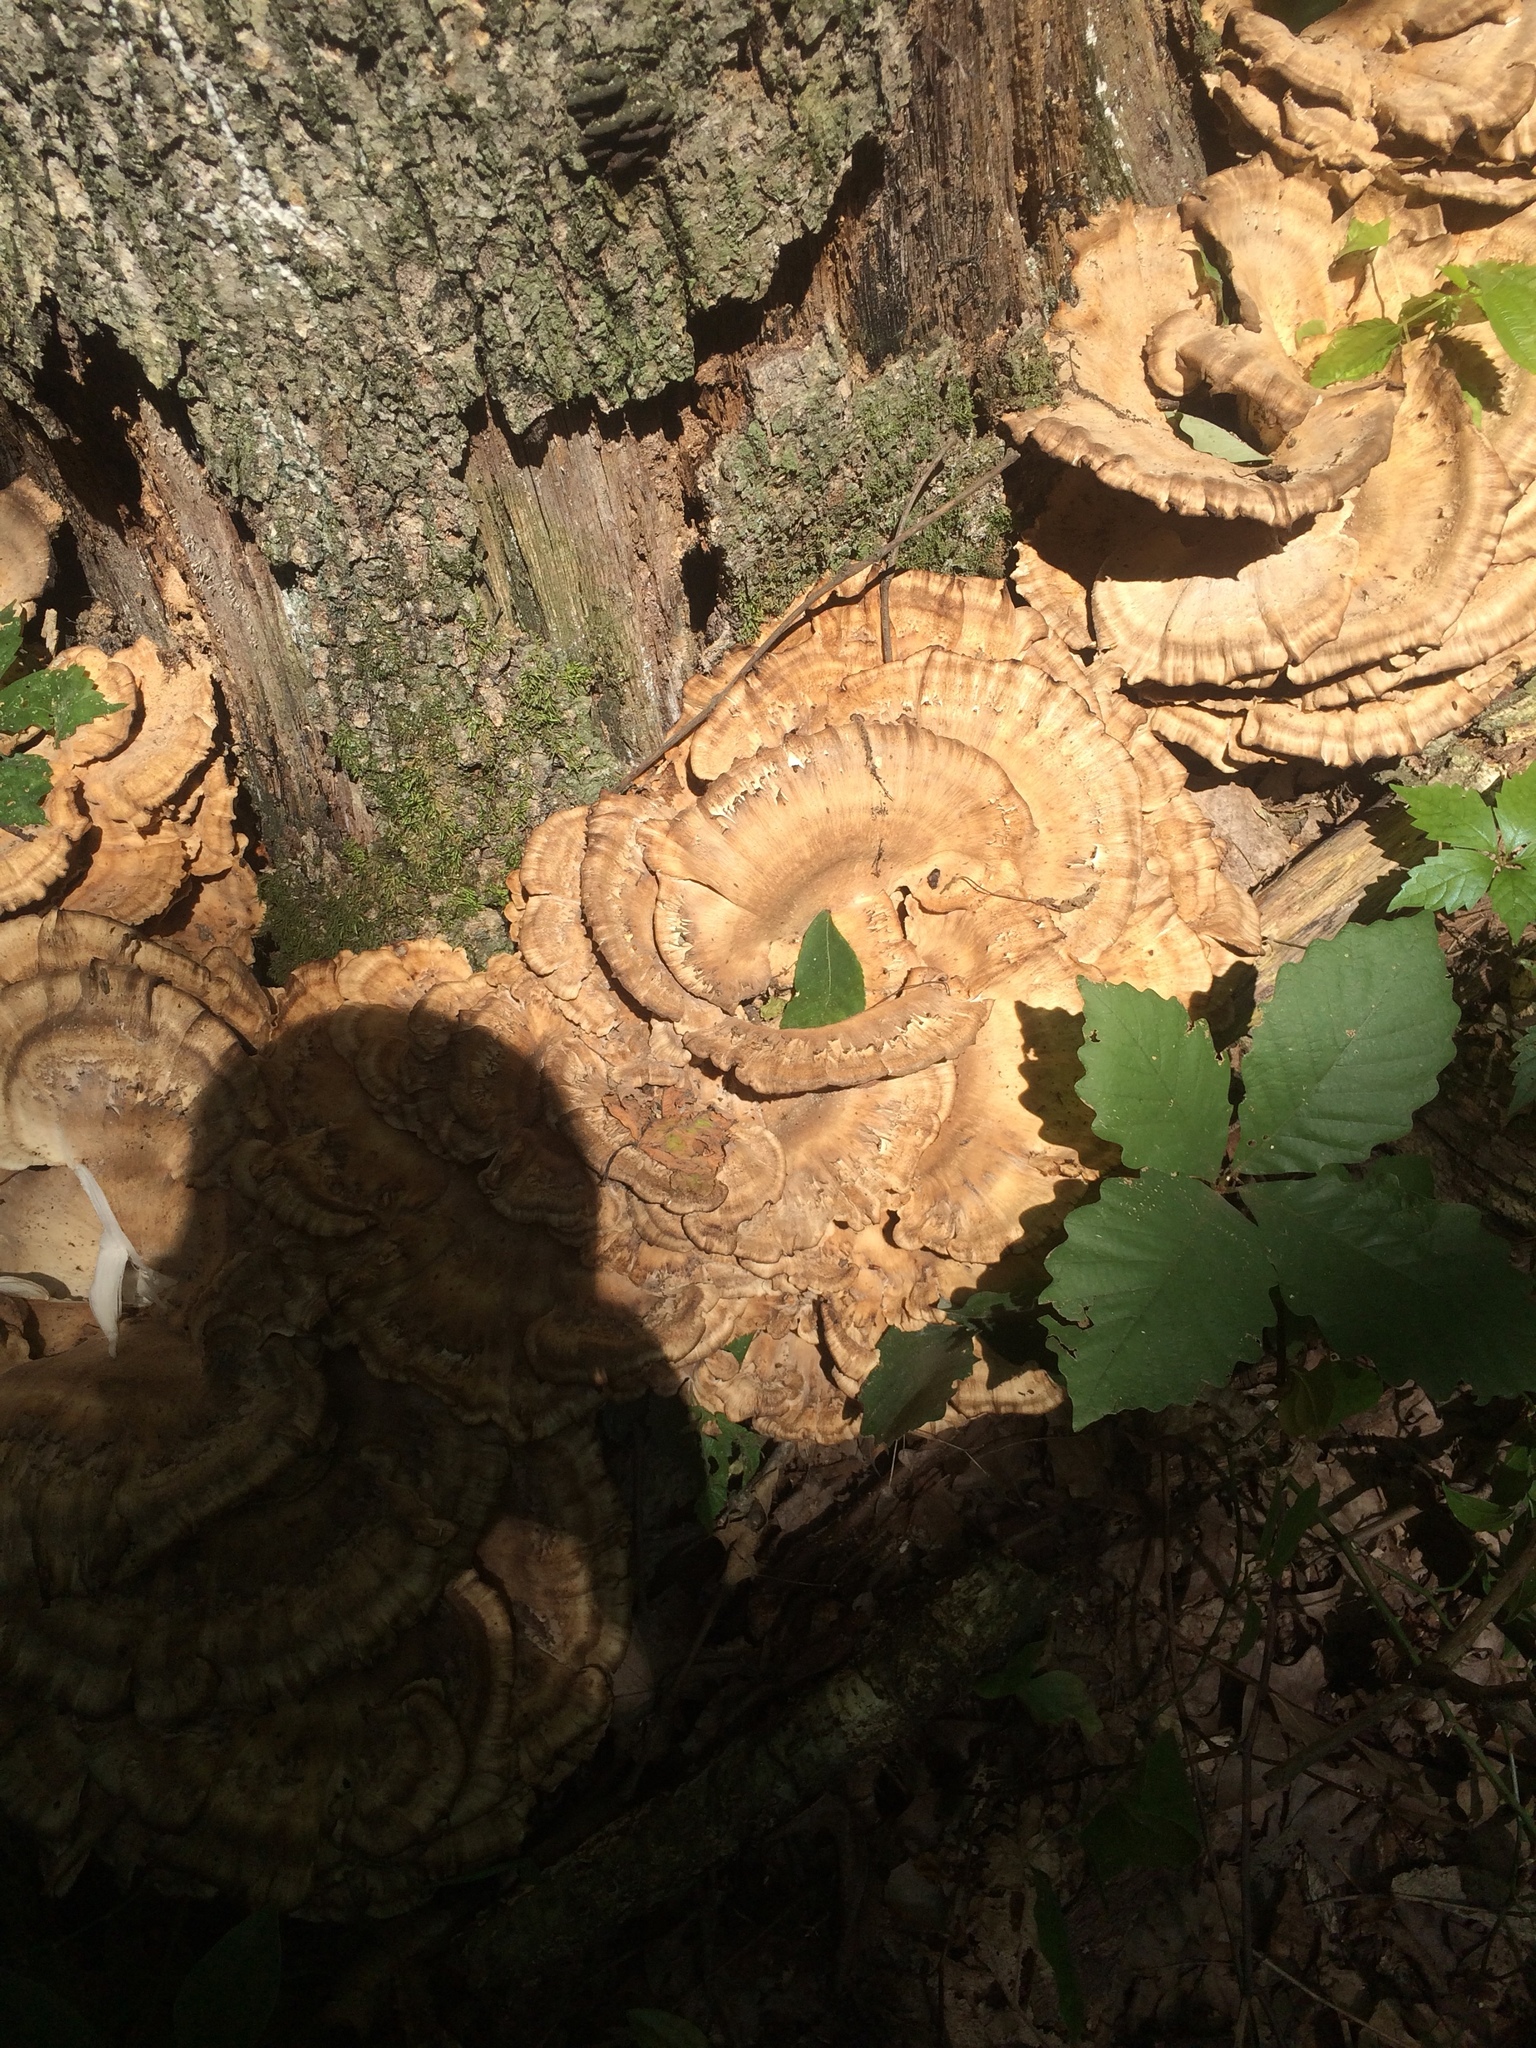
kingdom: Fungi
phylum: Basidiomycota
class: Agaricomycetes
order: Polyporales
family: Meripilaceae
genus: Meripilus
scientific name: Meripilus sumstinei
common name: Black-staining polypore
